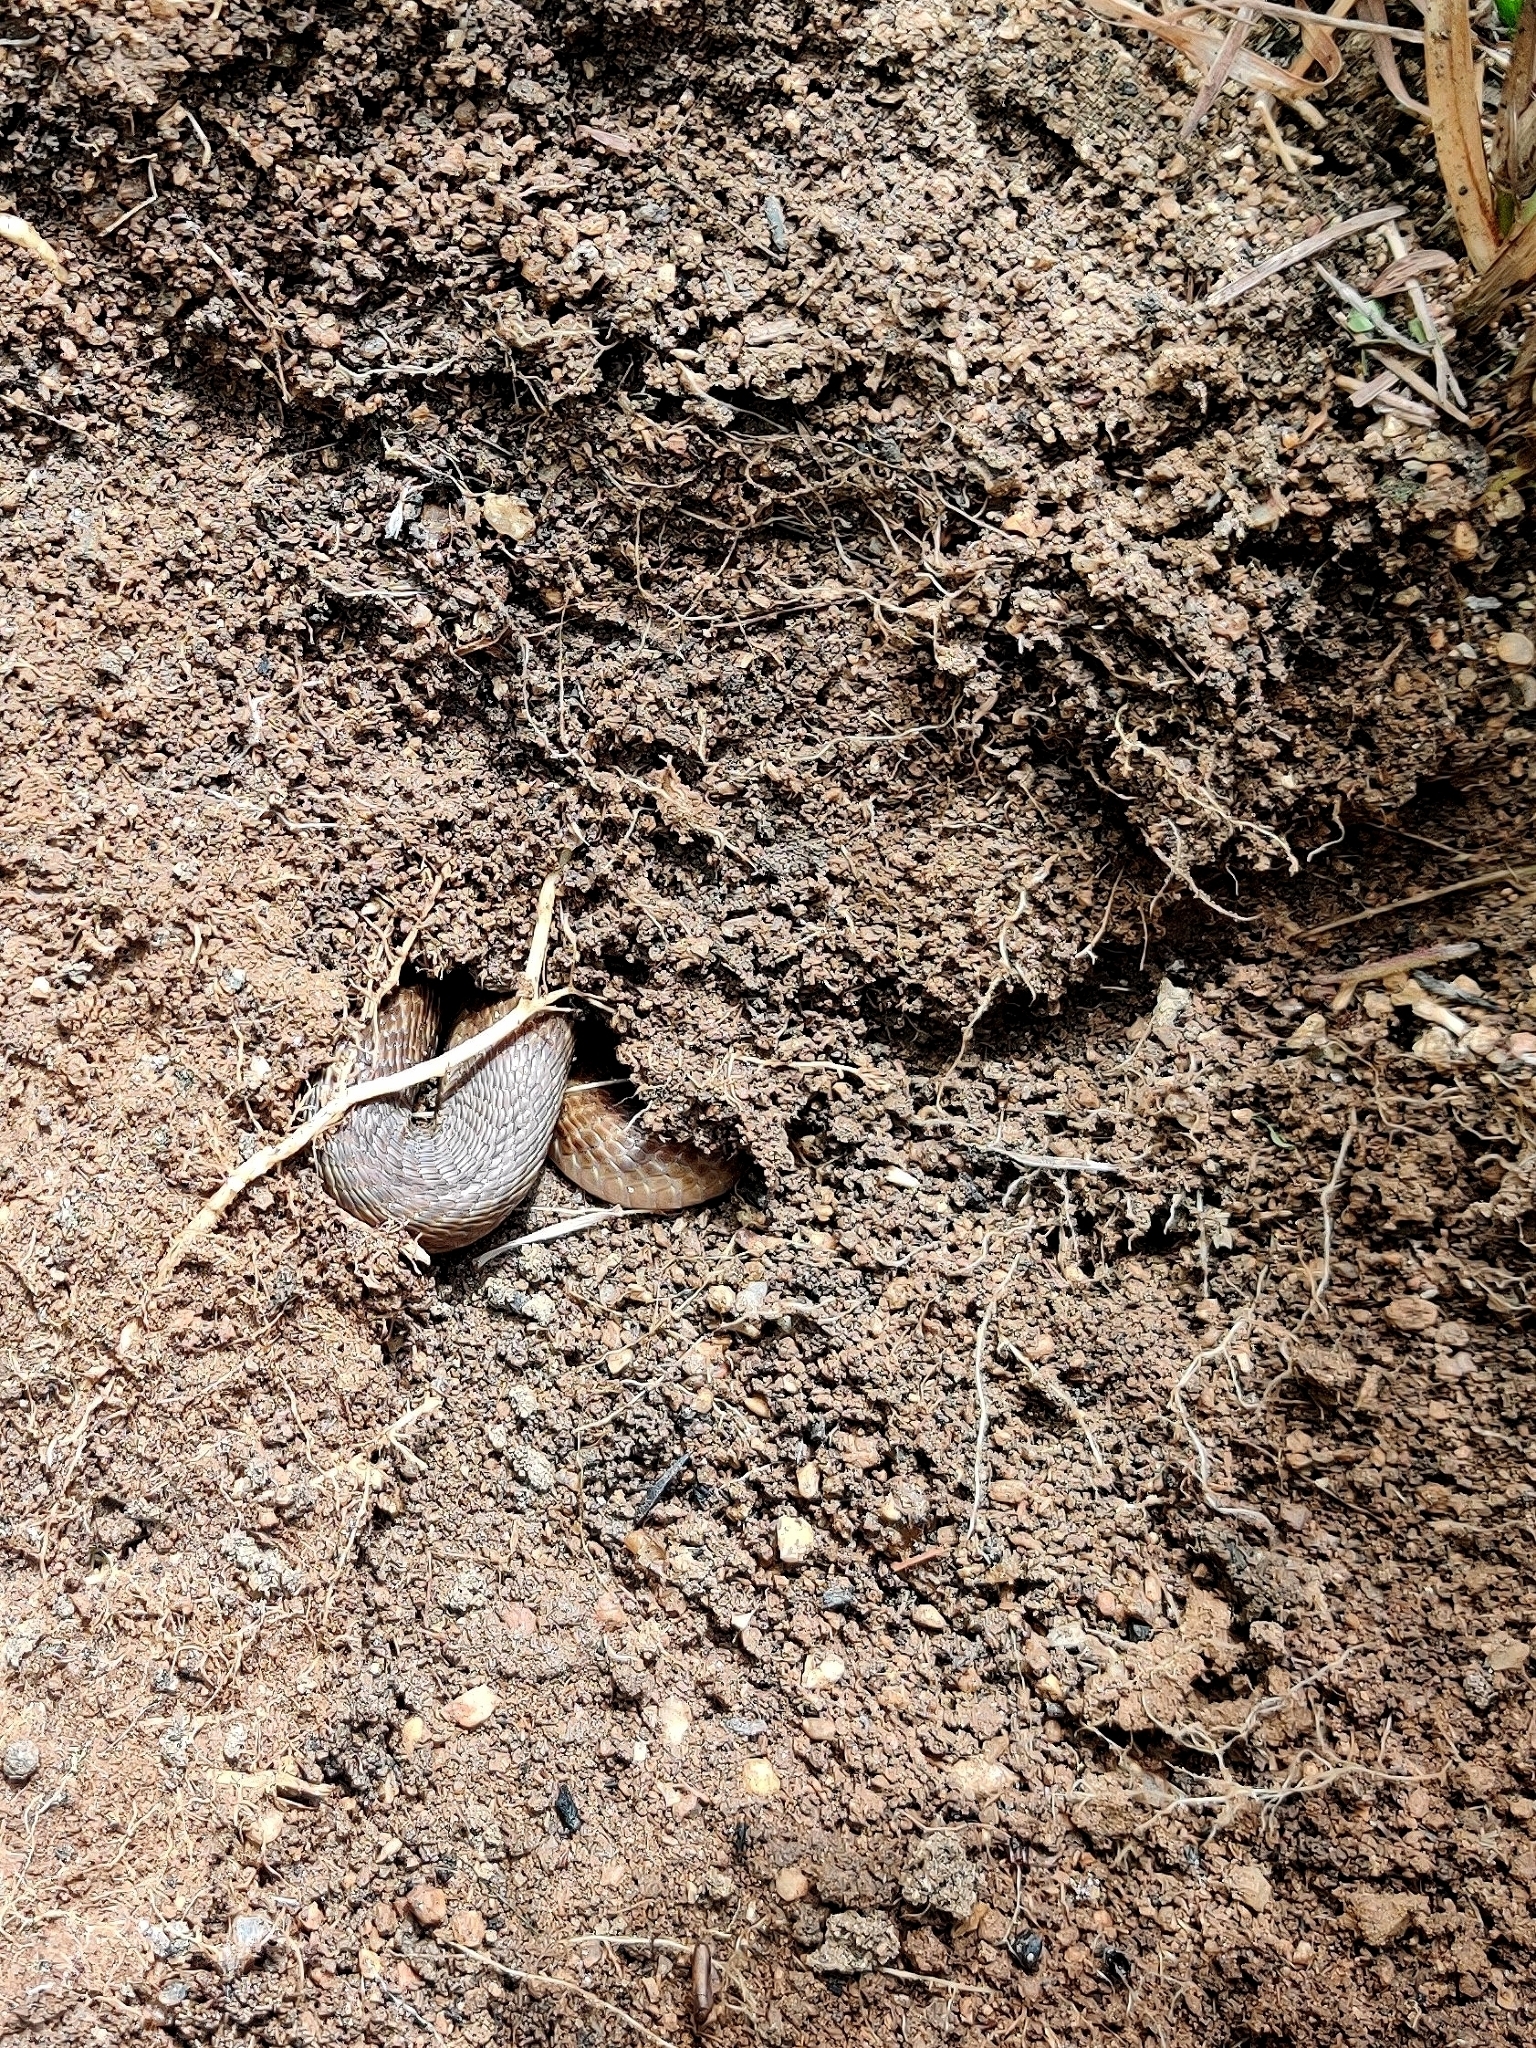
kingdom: Animalia
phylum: Chordata
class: Squamata
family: Elapidae
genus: Naja
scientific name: Naja naja
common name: Indian cobra
